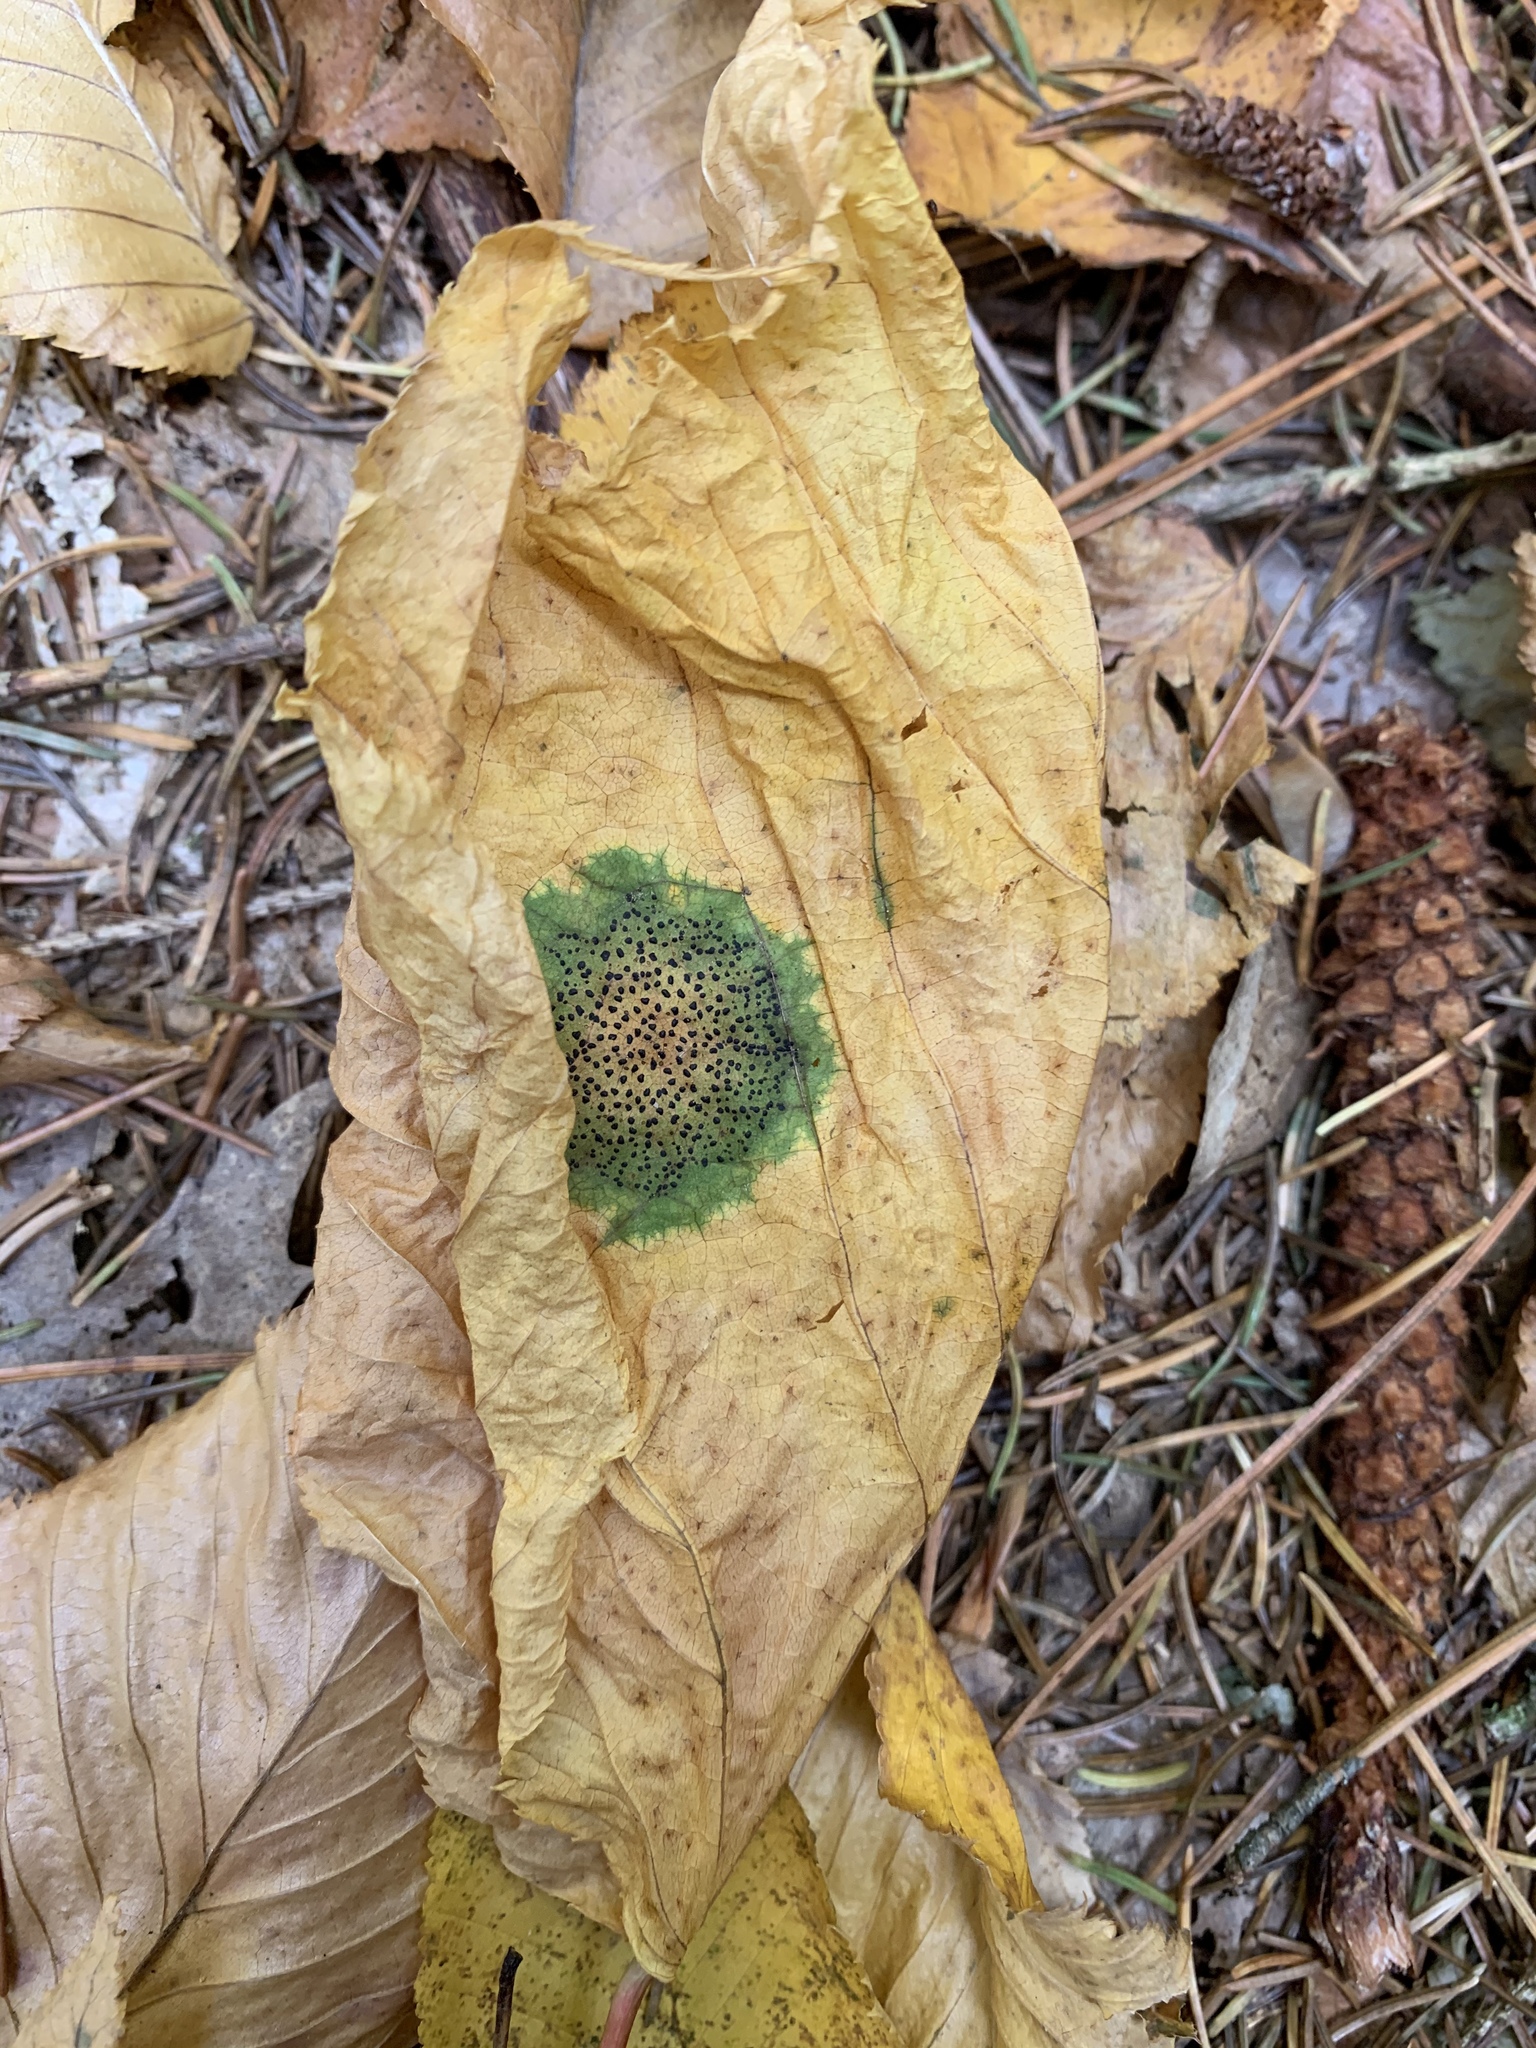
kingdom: Fungi
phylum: Ascomycota
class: Leotiomycetes
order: Rhytismatales
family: Rhytismataceae
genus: Rhytisma
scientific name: Rhytisma punctatum
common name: Speckled tar spot
